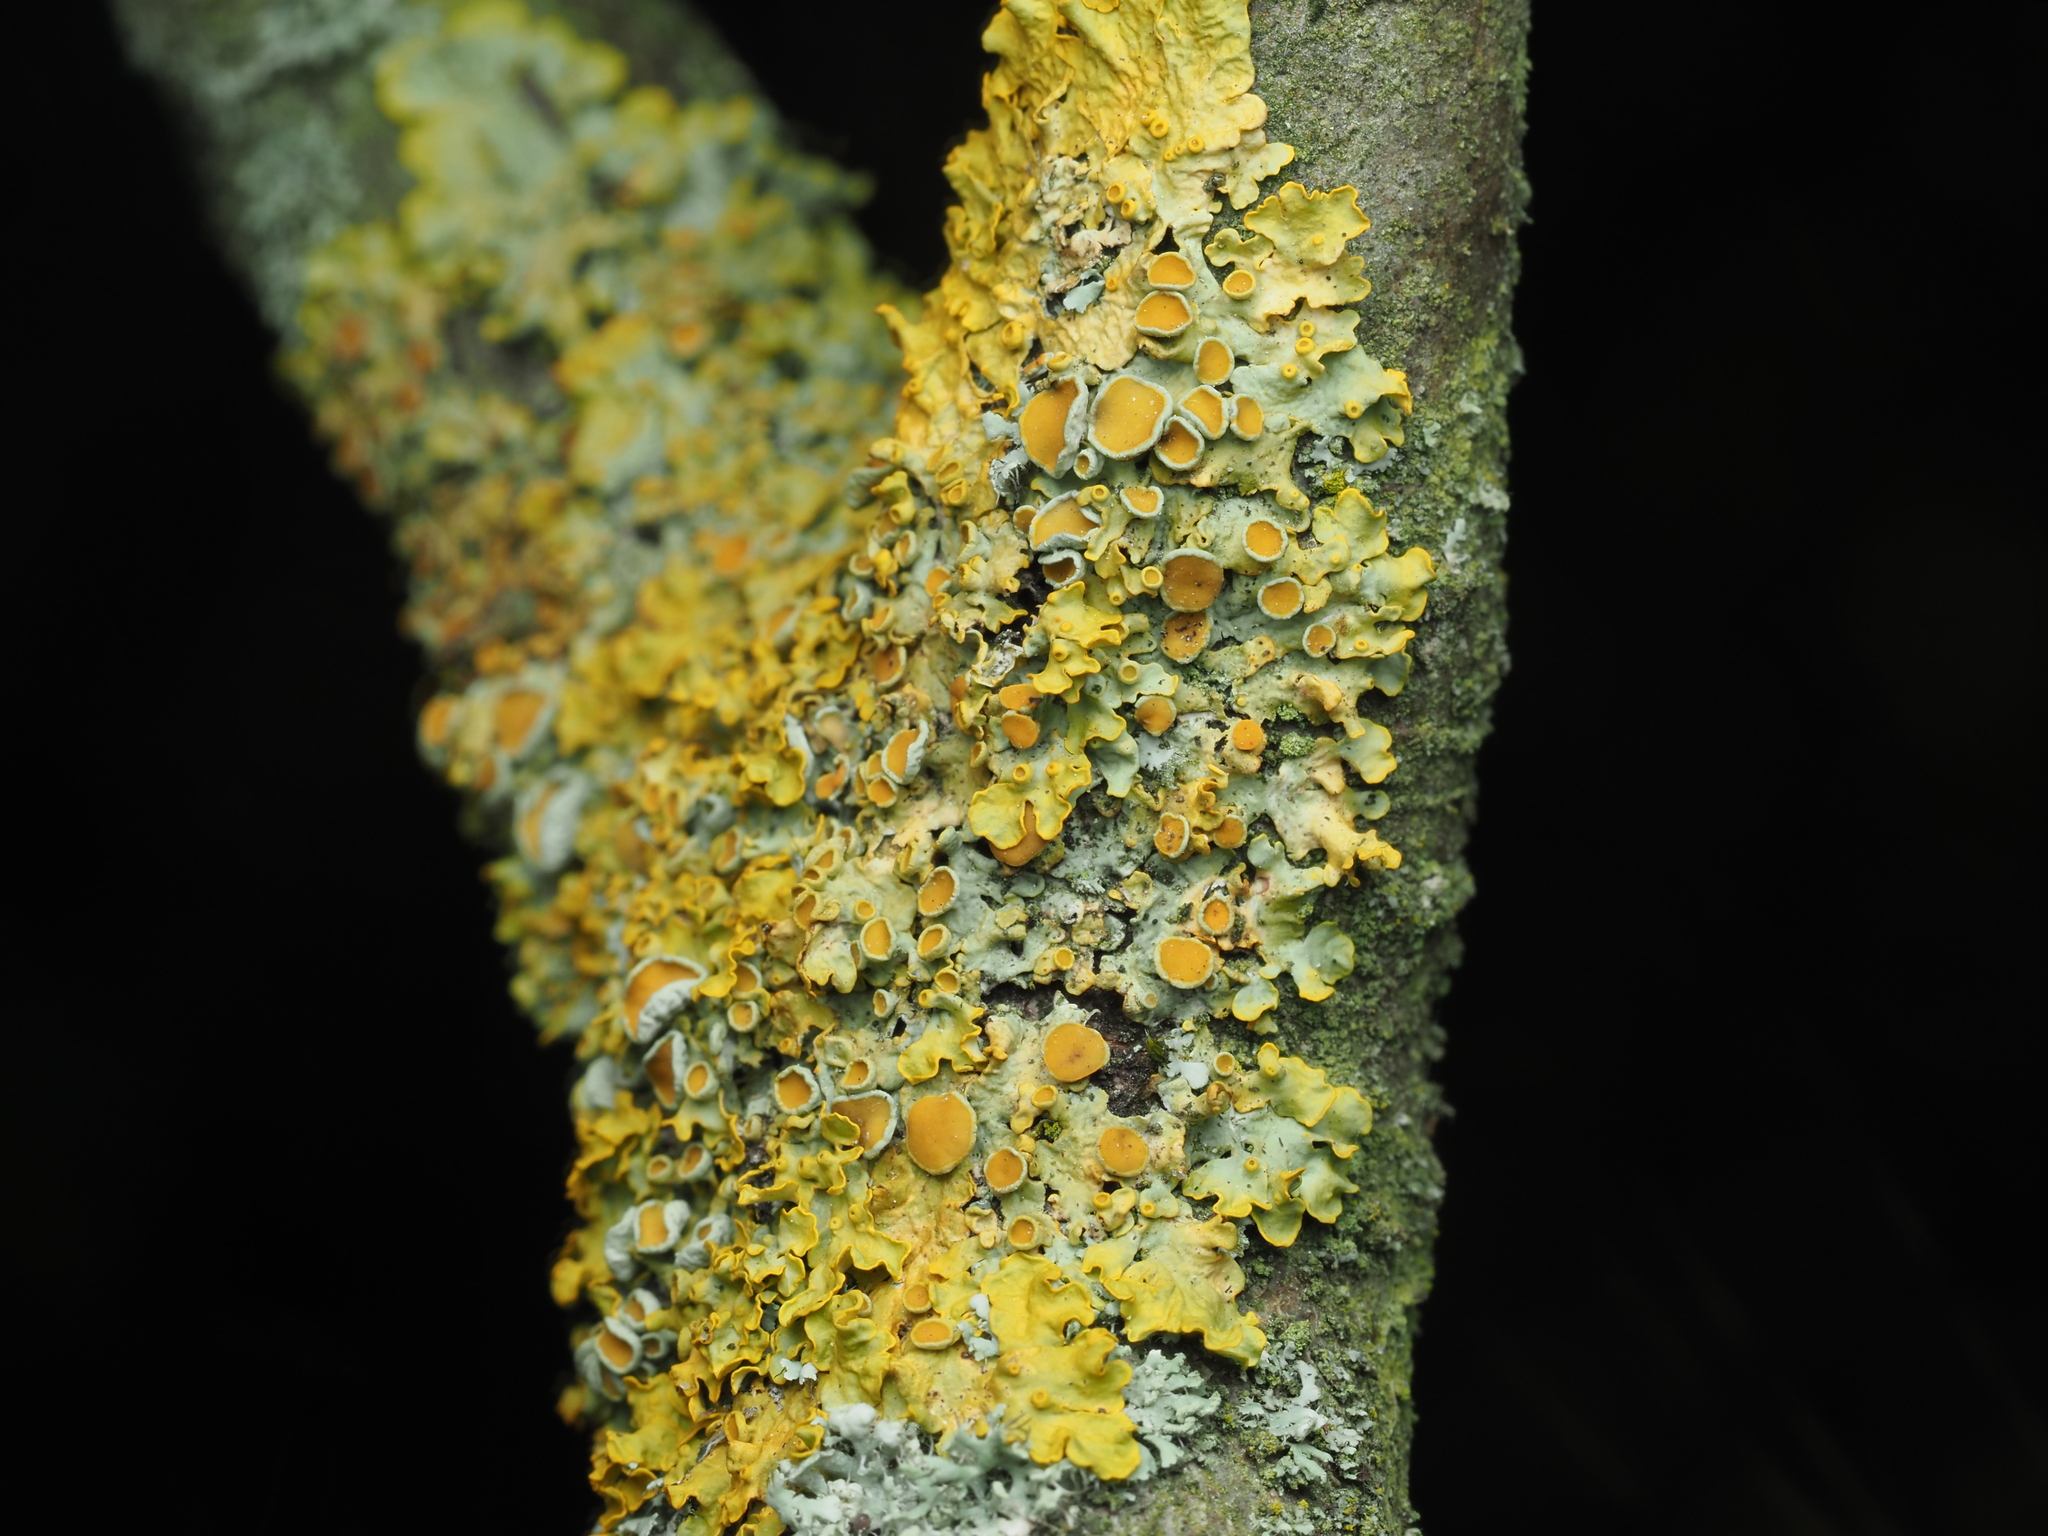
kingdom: Fungi
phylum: Ascomycota
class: Lecanoromycetes
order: Teloschistales
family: Teloschistaceae
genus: Xanthoria
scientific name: Xanthoria parietina
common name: Common orange lichen
